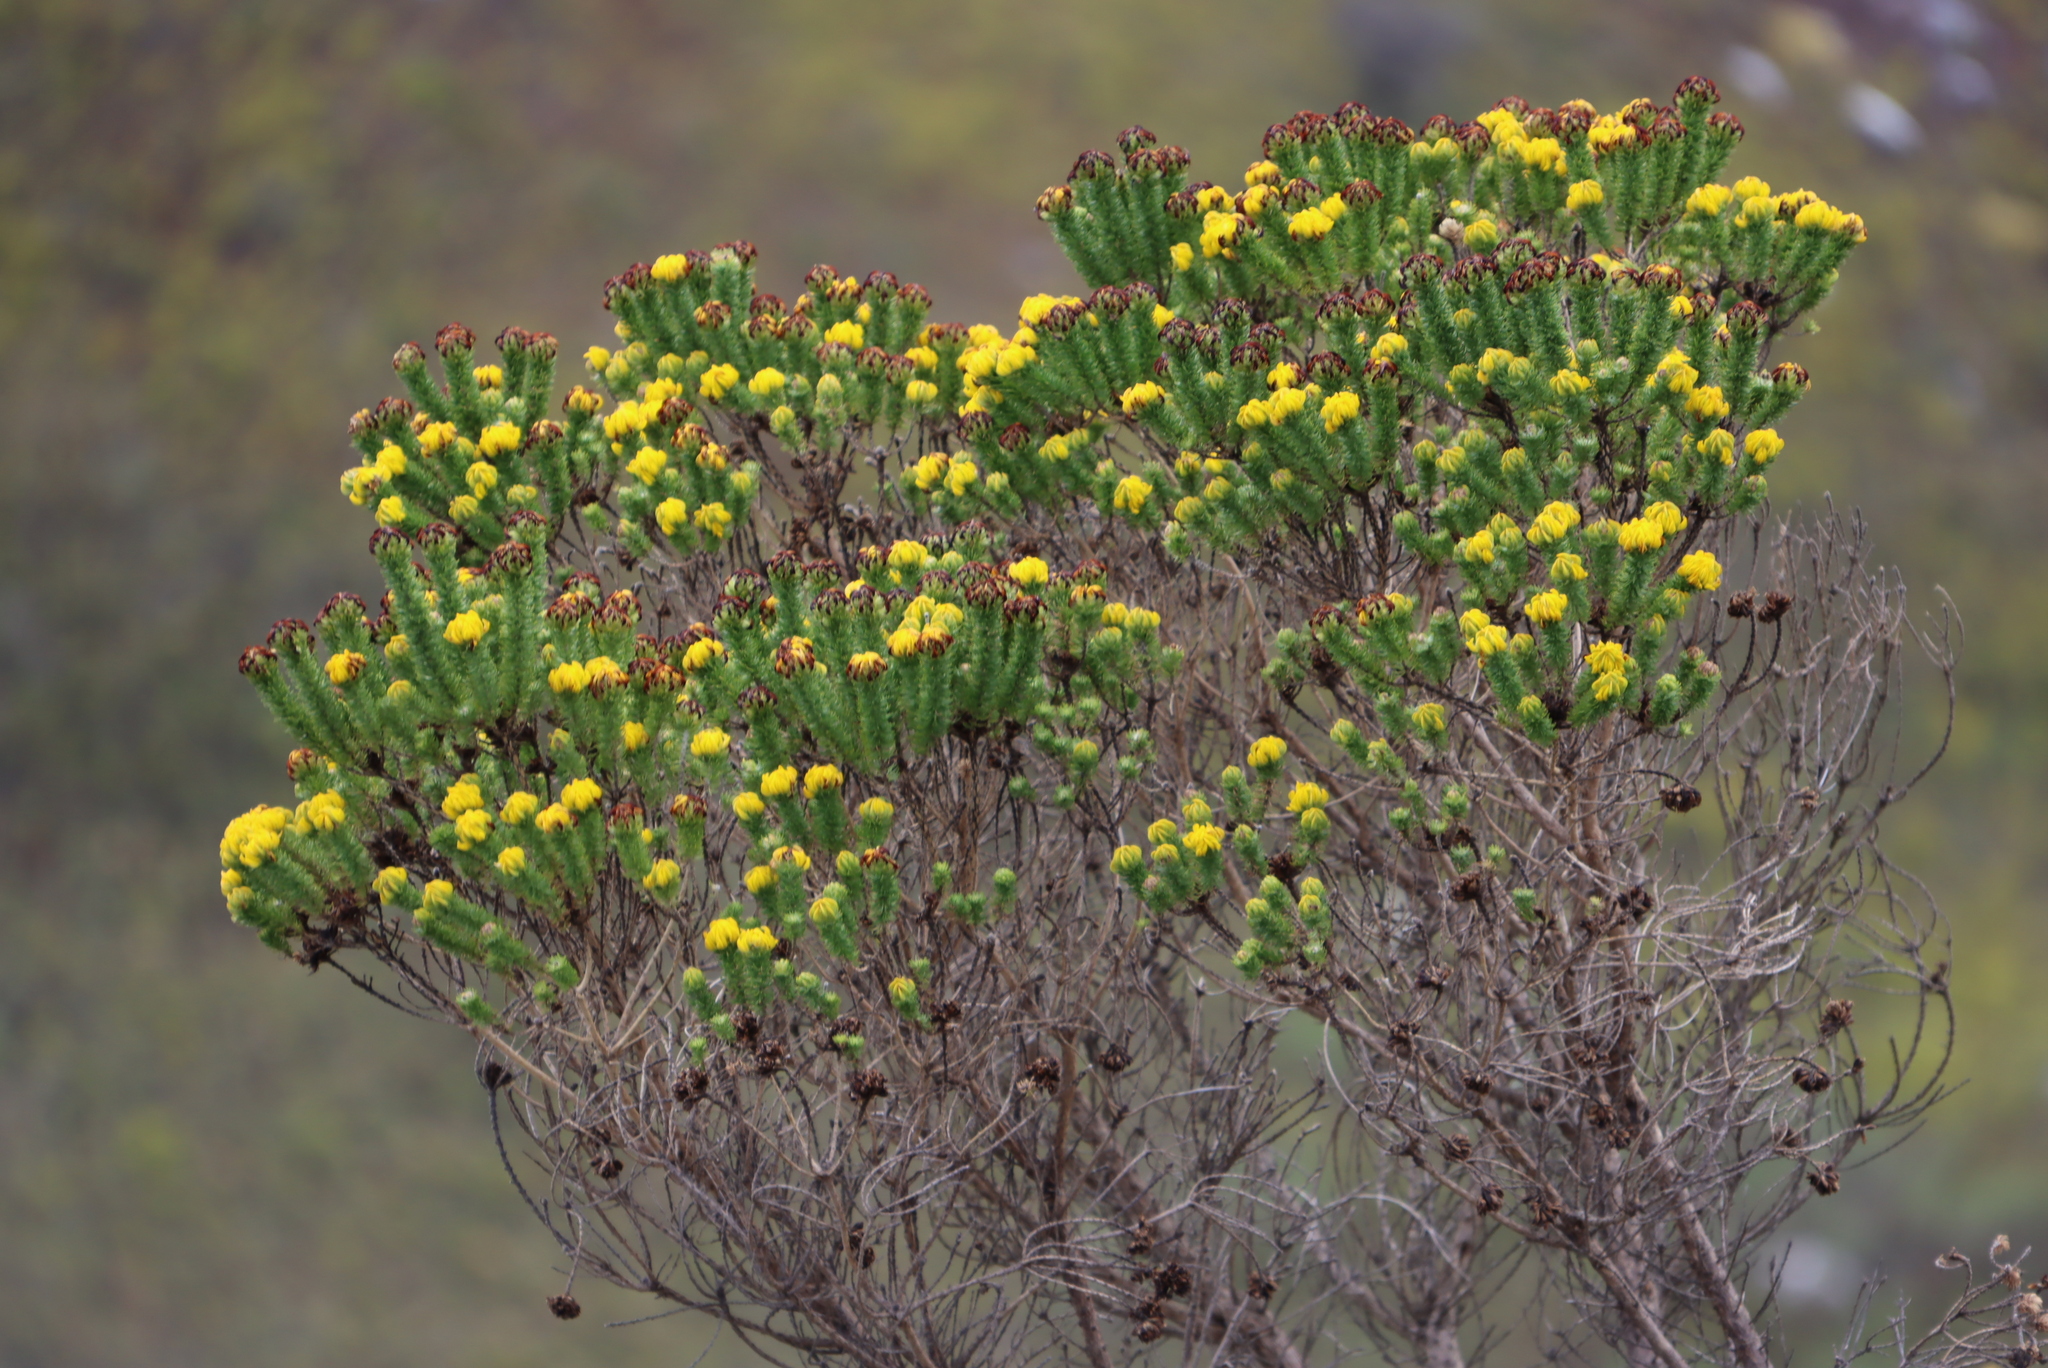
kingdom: Plantae
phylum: Tracheophyta
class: Magnoliopsida
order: Fabales
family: Fabaceae
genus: Aspalathus
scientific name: Aspalathus capitata
